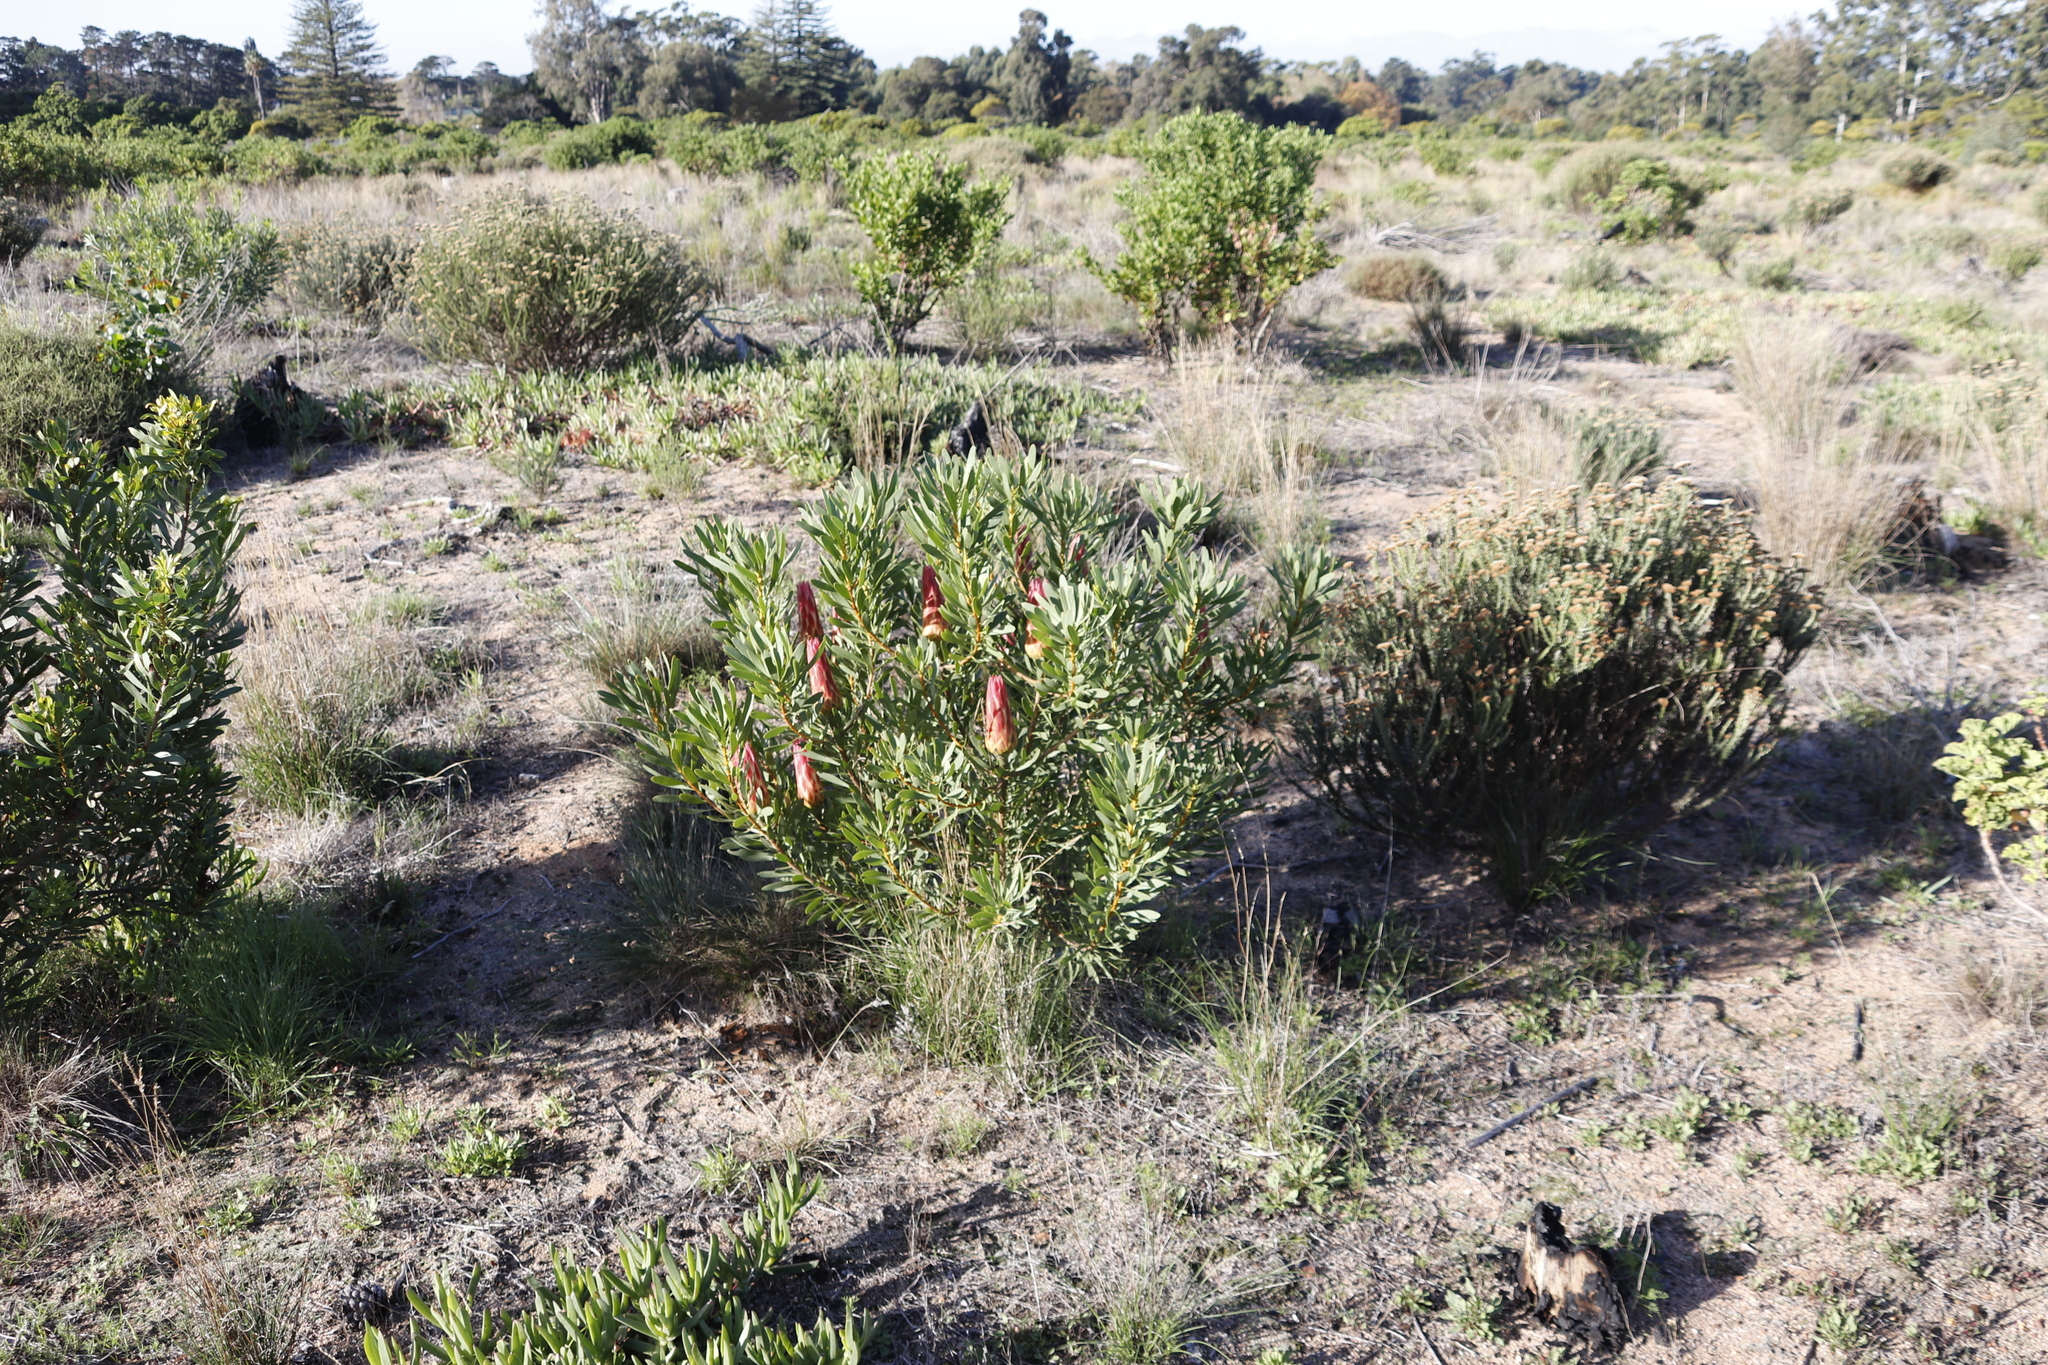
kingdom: Plantae
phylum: Tracheophyta
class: Magnoliopsida
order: Proteales
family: Proteaceae
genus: Protea
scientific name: Protea repens
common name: Sugarbush
